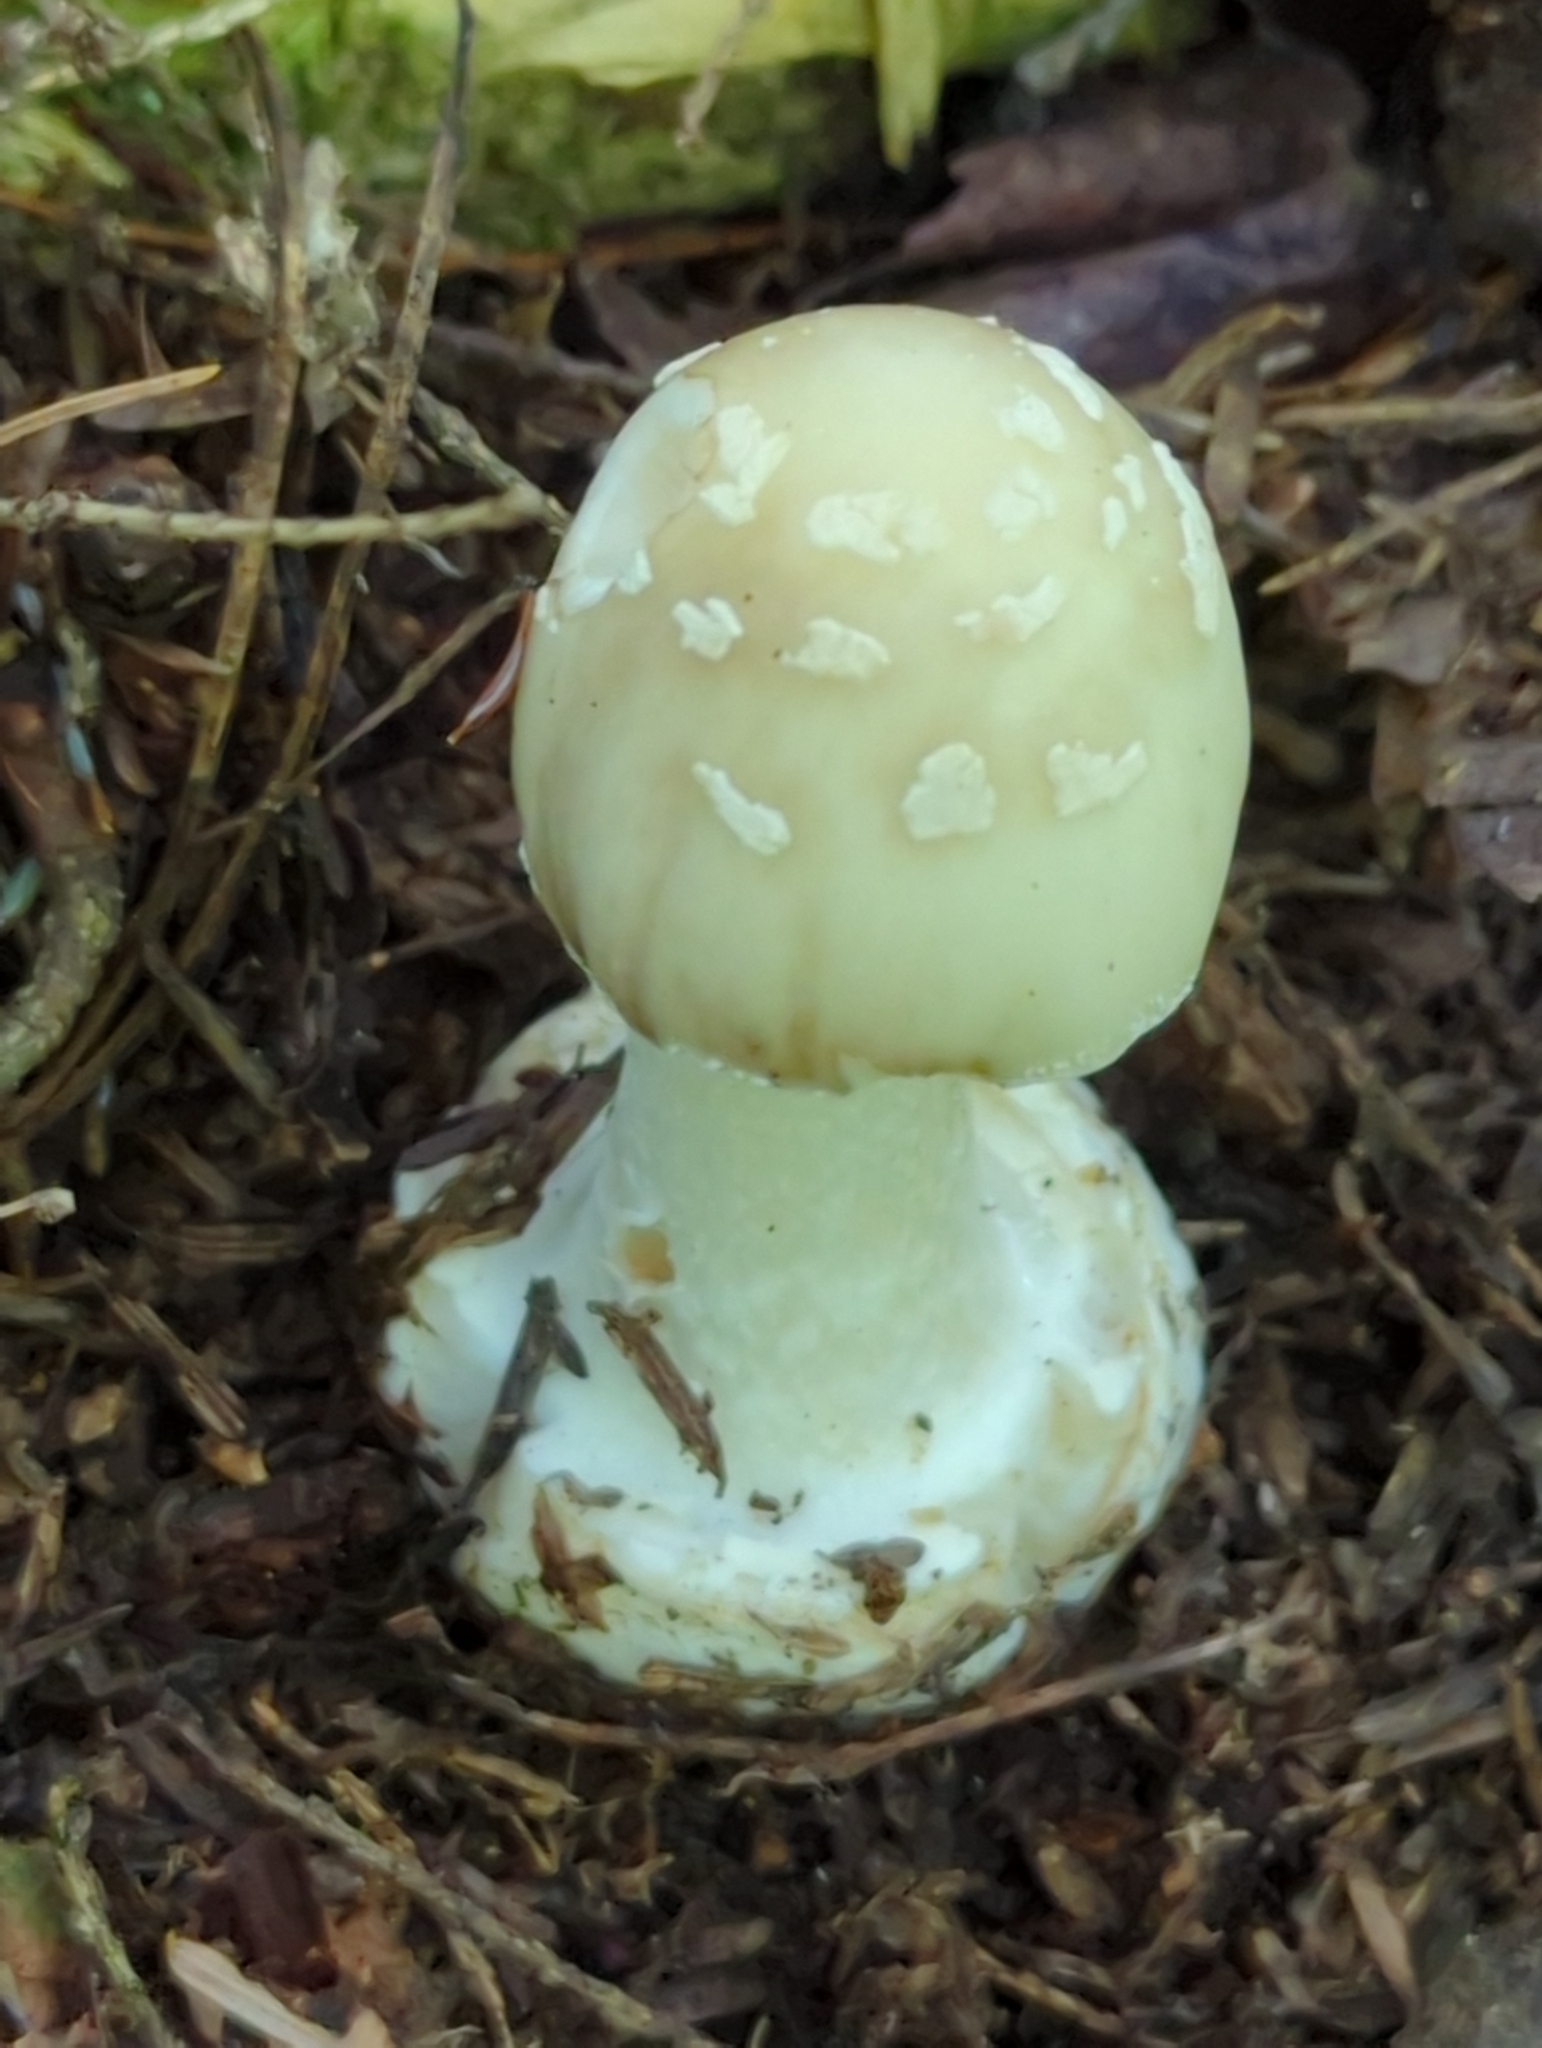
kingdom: Fungi
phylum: Basidiomycota
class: Agaricomycetes
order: Agaricales
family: Amanitaceae
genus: Amanita
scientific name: Amanita brunnescens
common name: Brown american star-footed amanita
